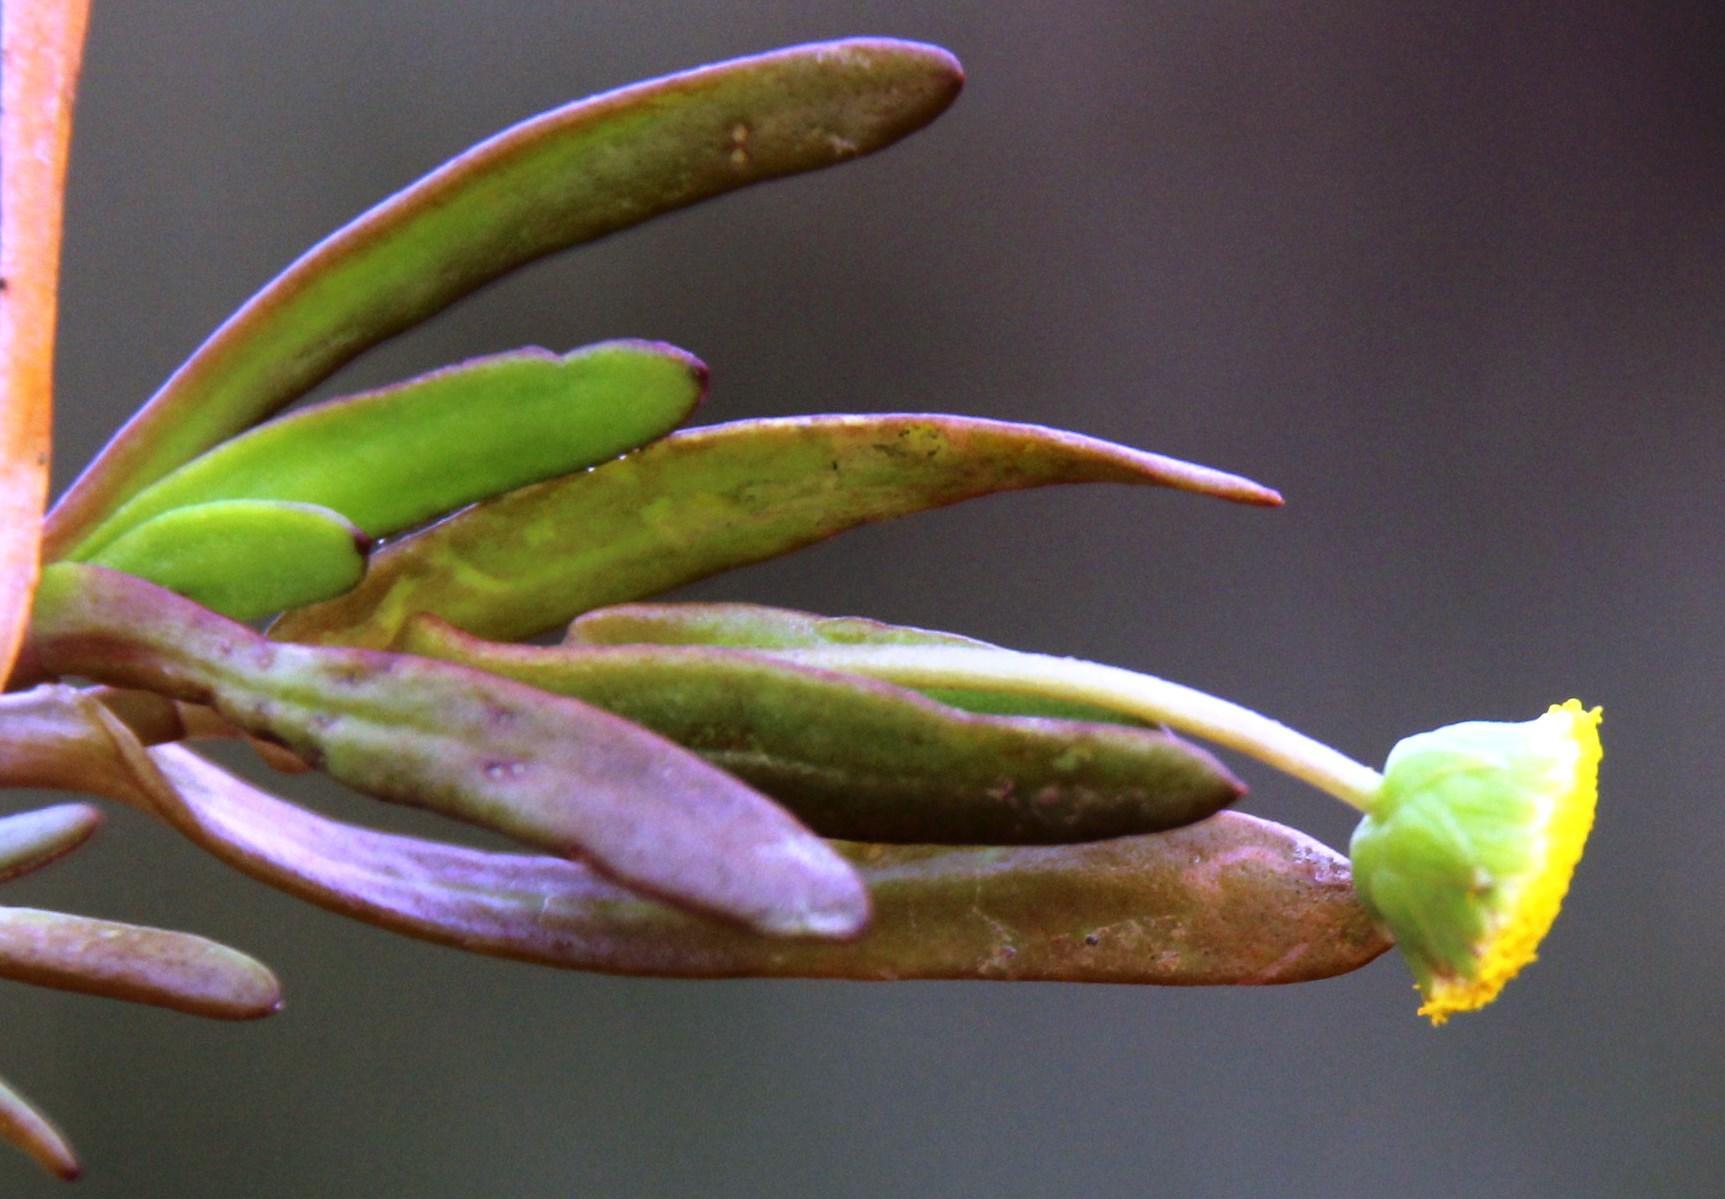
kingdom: Plantae
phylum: Tracheophyta
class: Magnoliopsida
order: Asterales
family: Asteraceae
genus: Cotula
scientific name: Cotula coronopifolia
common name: Buttonweed
